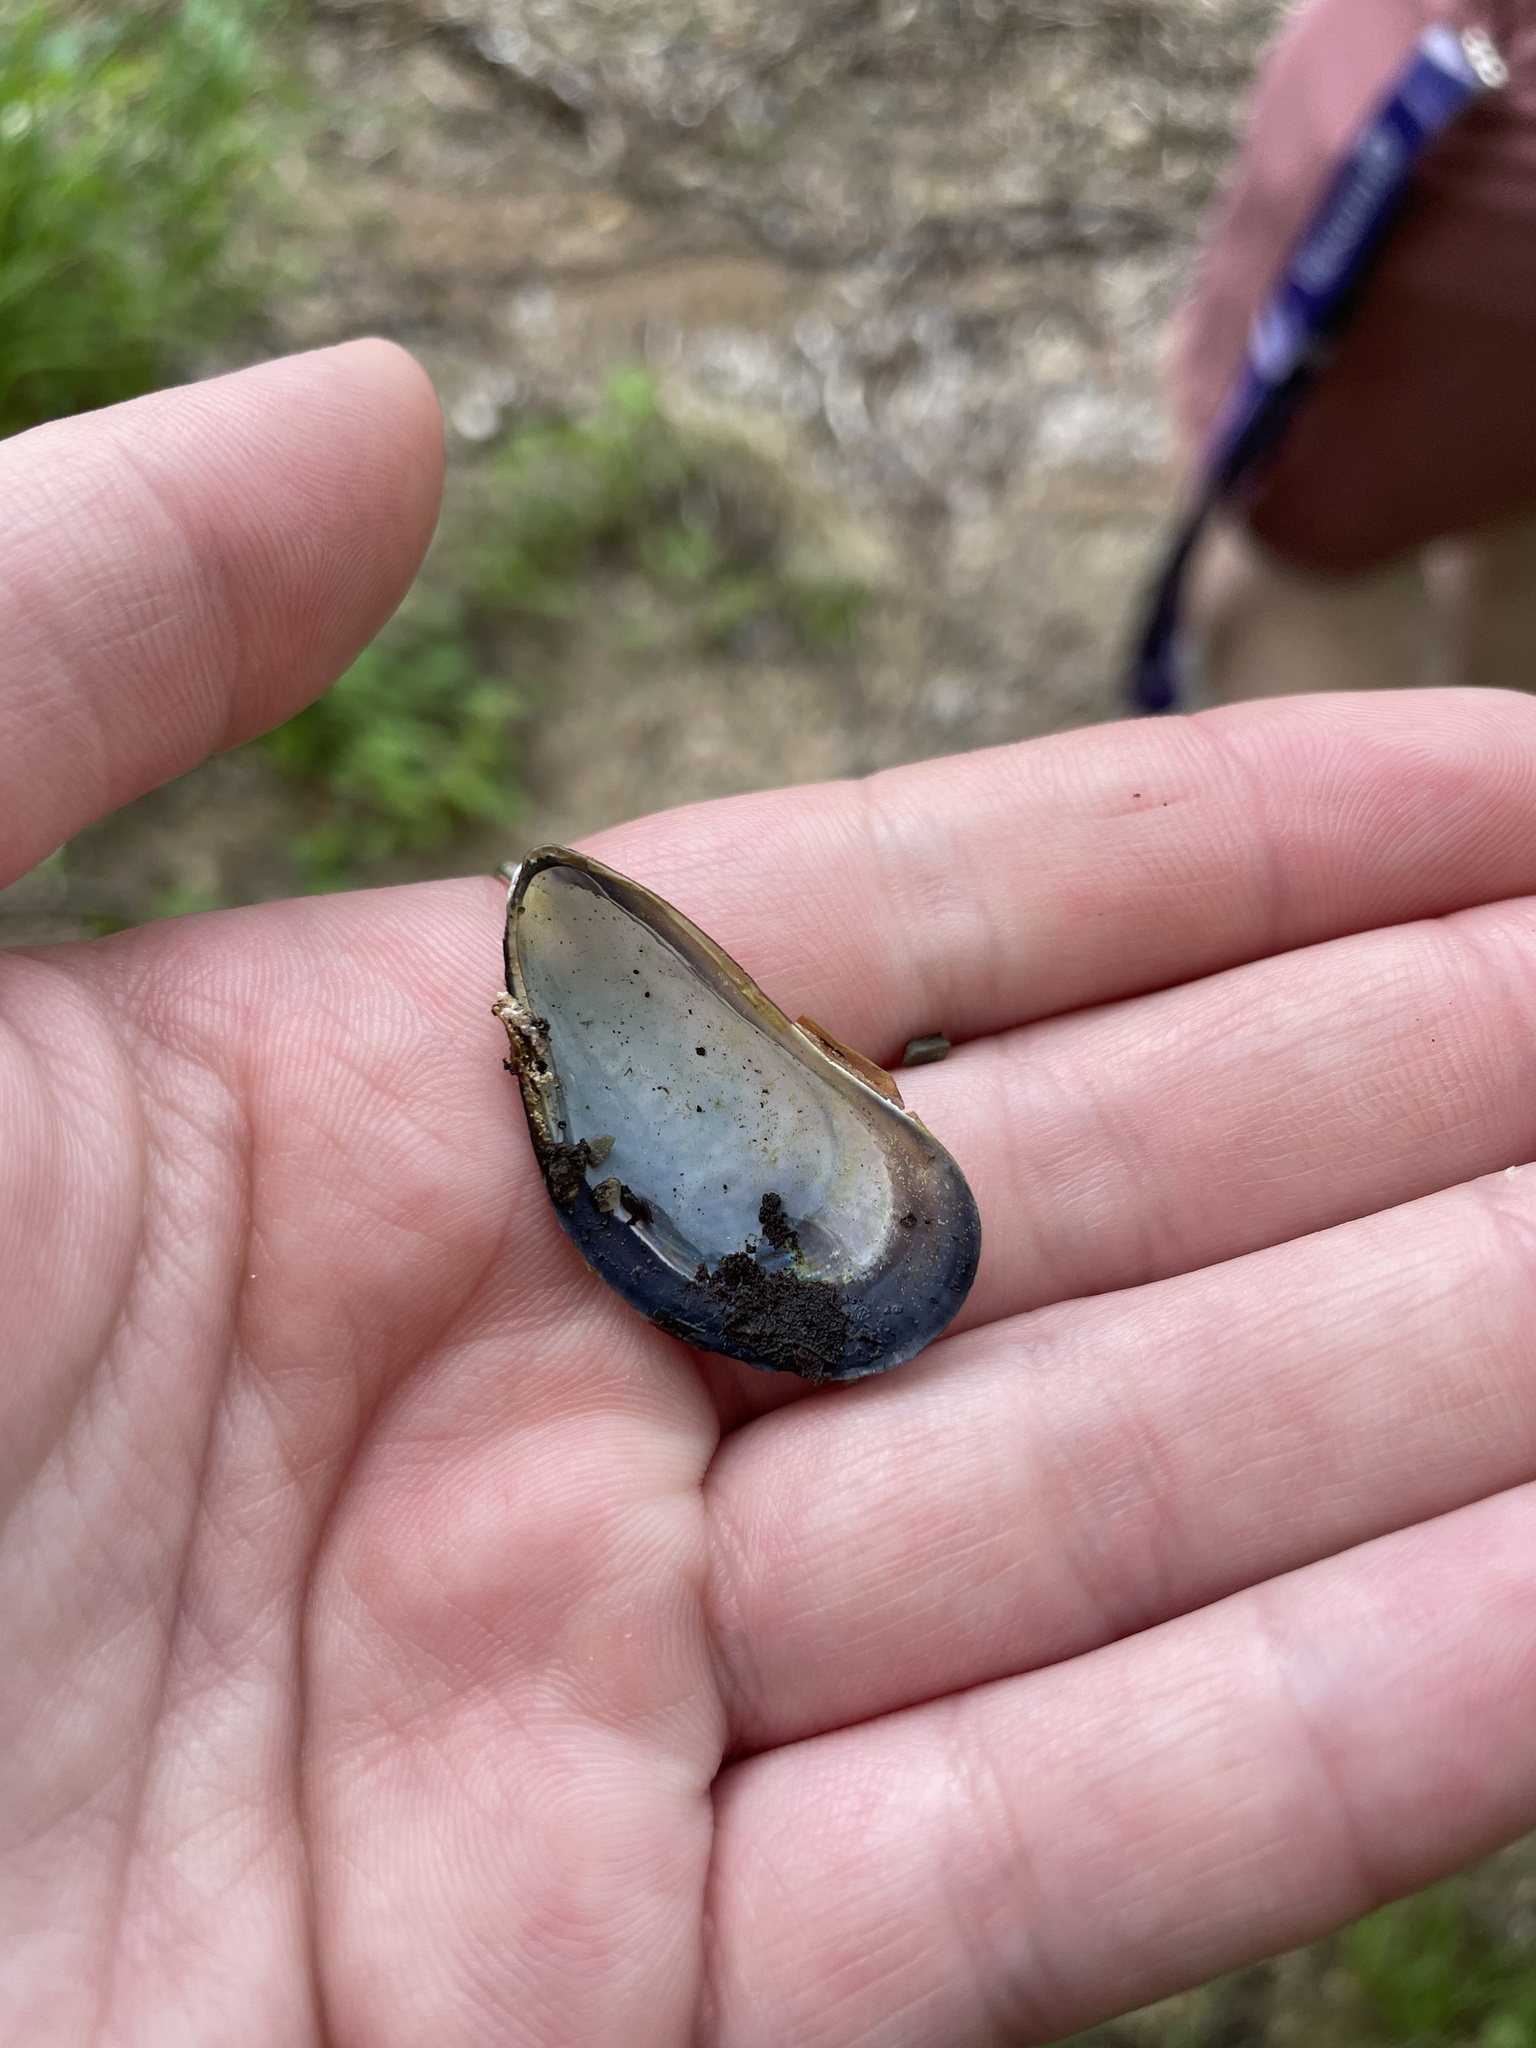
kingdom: Animalia
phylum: Mollusca
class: Bivalvia
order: Mytilida
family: Mytilidae
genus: Mytilus
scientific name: Mytilus
